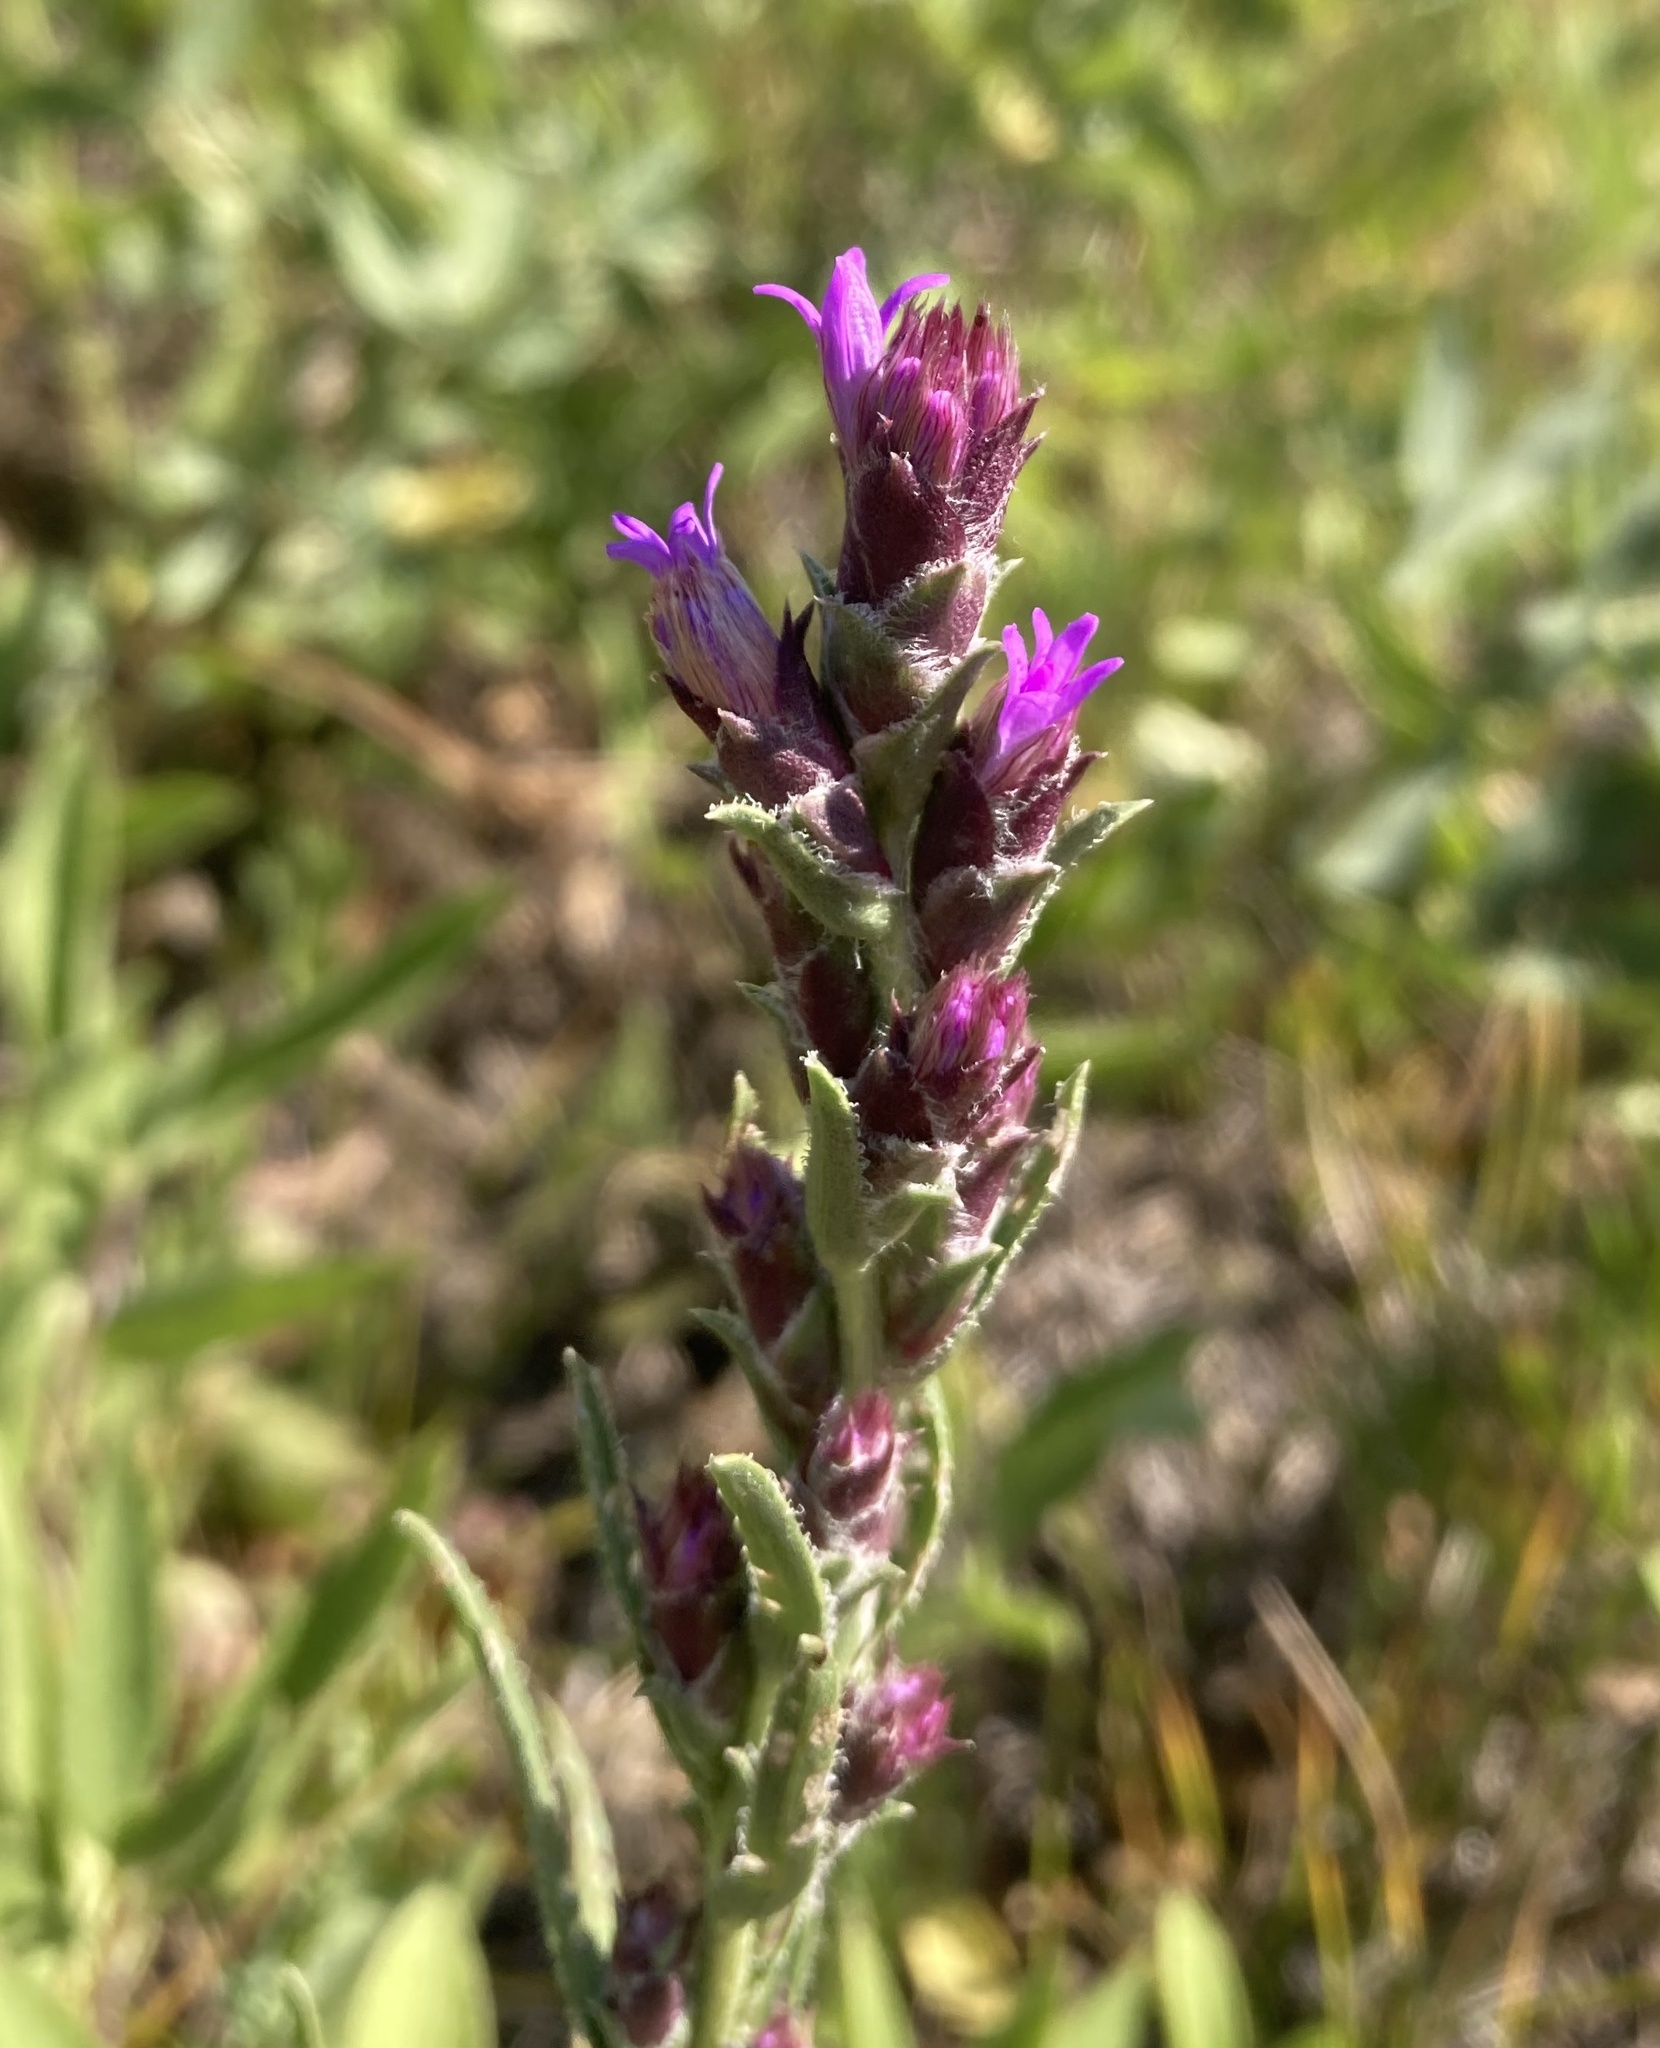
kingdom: Plantae
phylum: Tracheophyta
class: Magnoliopsida
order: Asterales
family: Asteraceae
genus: Liatris
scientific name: Liatris punctata
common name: Dotted gayfeather
